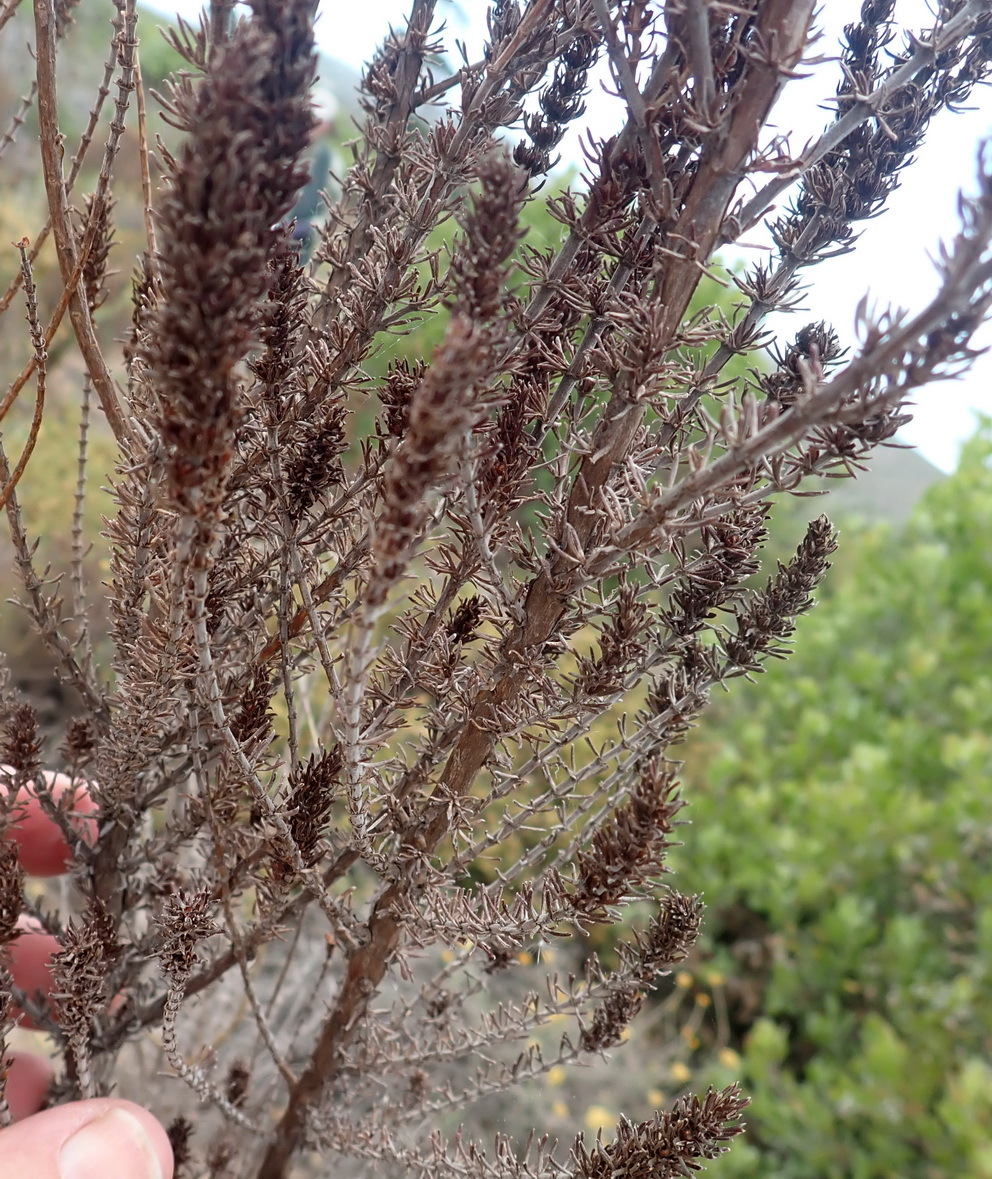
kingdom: Plantae
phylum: Tracheophyta
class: Magnoliopsida
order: Gentianales
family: Rubiaceae
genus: Anthospermum
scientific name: Anthospermum aethiopicum
